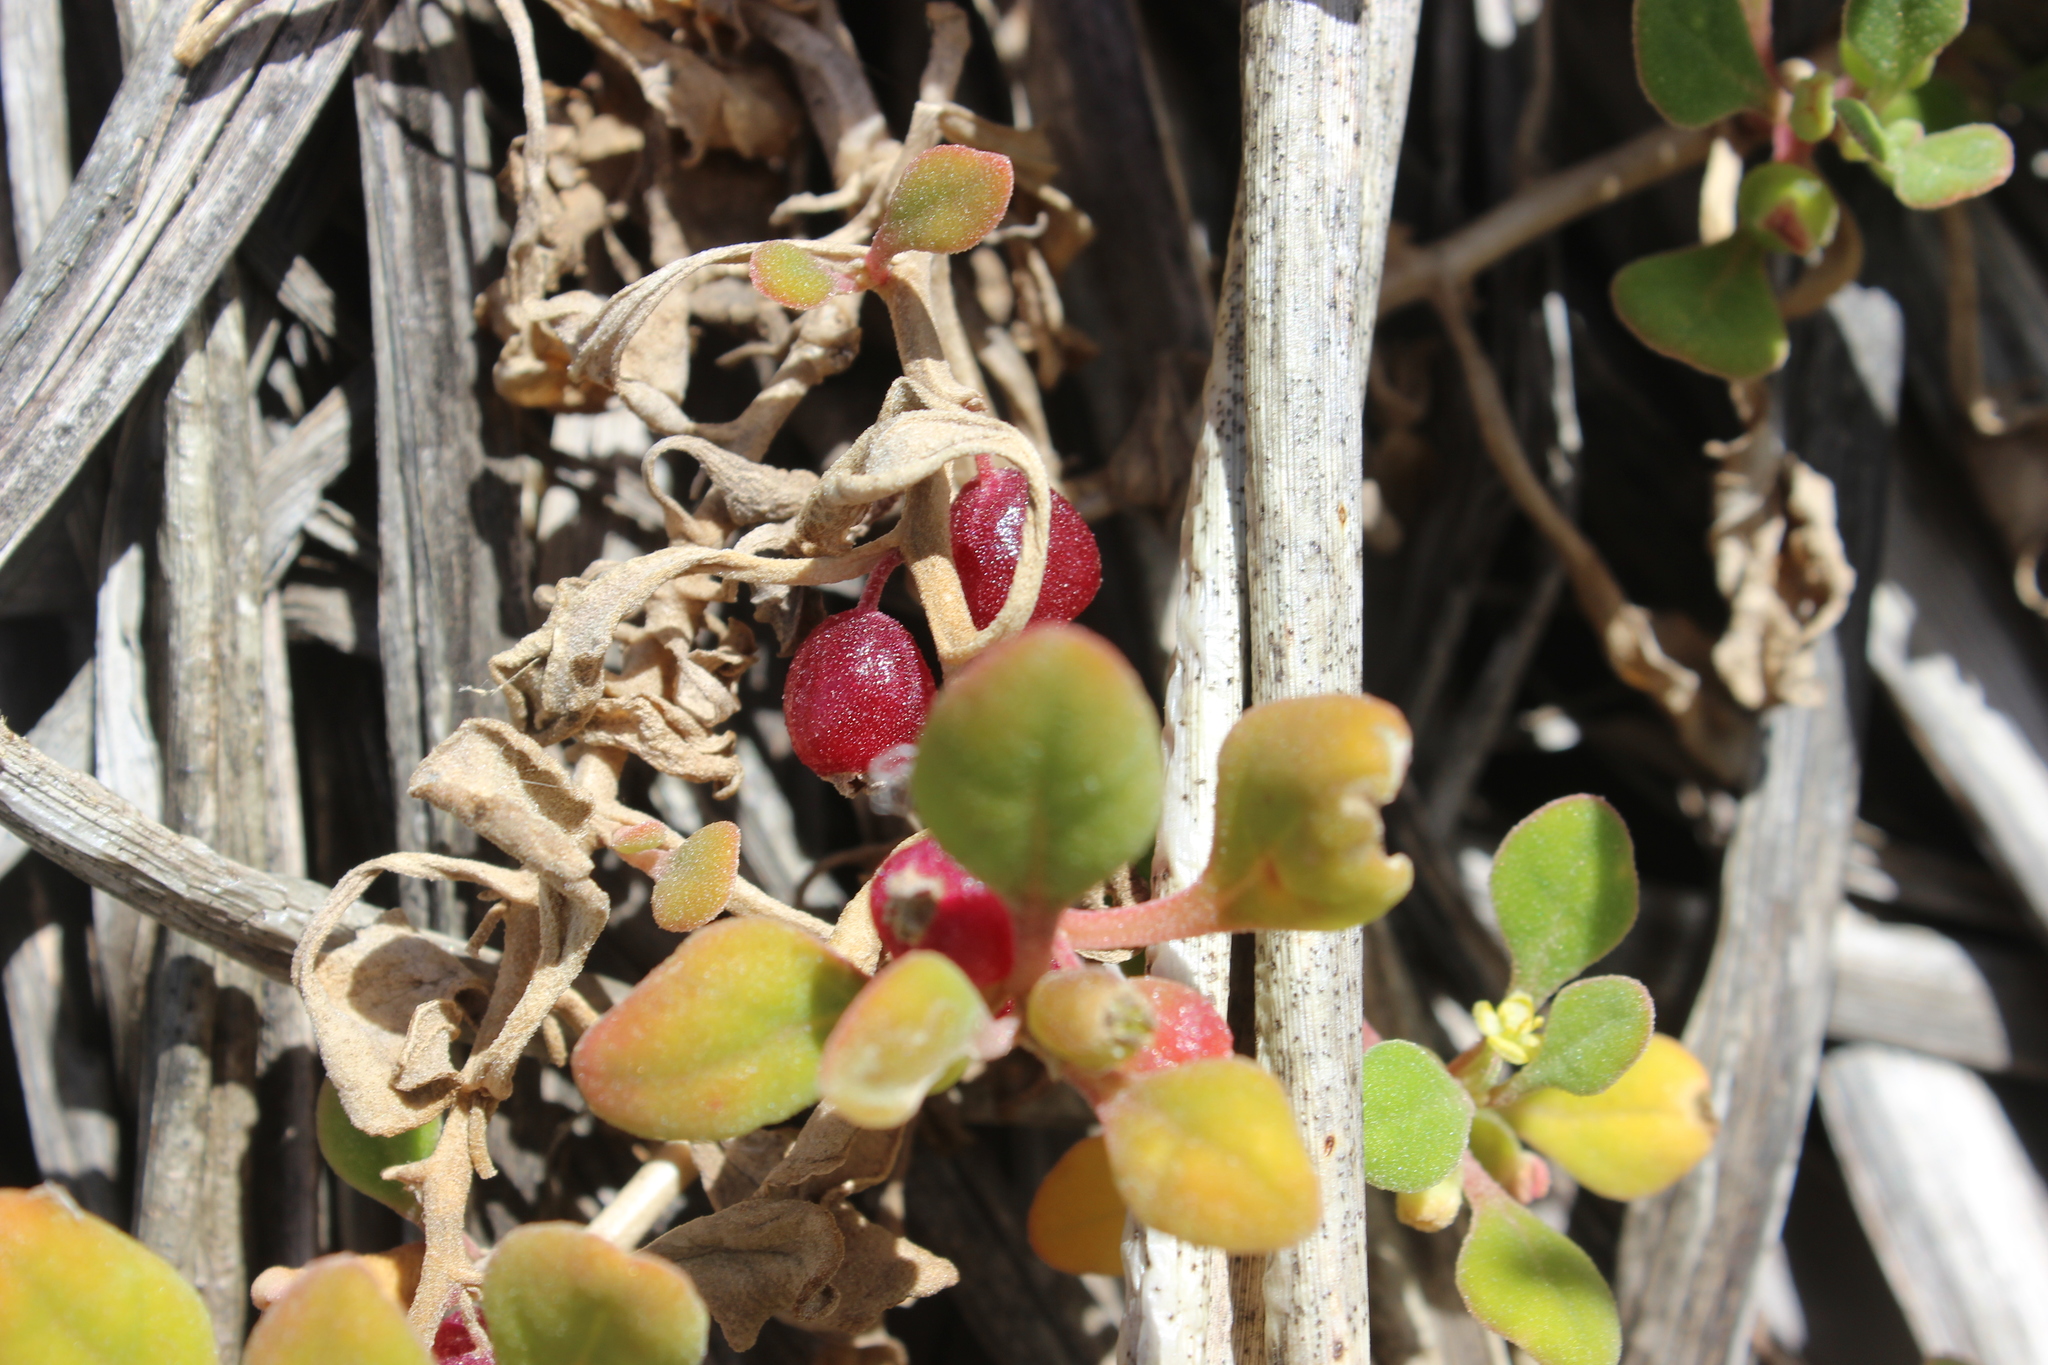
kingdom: Plantae
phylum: Tracheophyta
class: Magnoliopsida
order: Caryophyllales
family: Aizoaceae
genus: Tetragonia
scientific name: Tetragonia implexicoma
